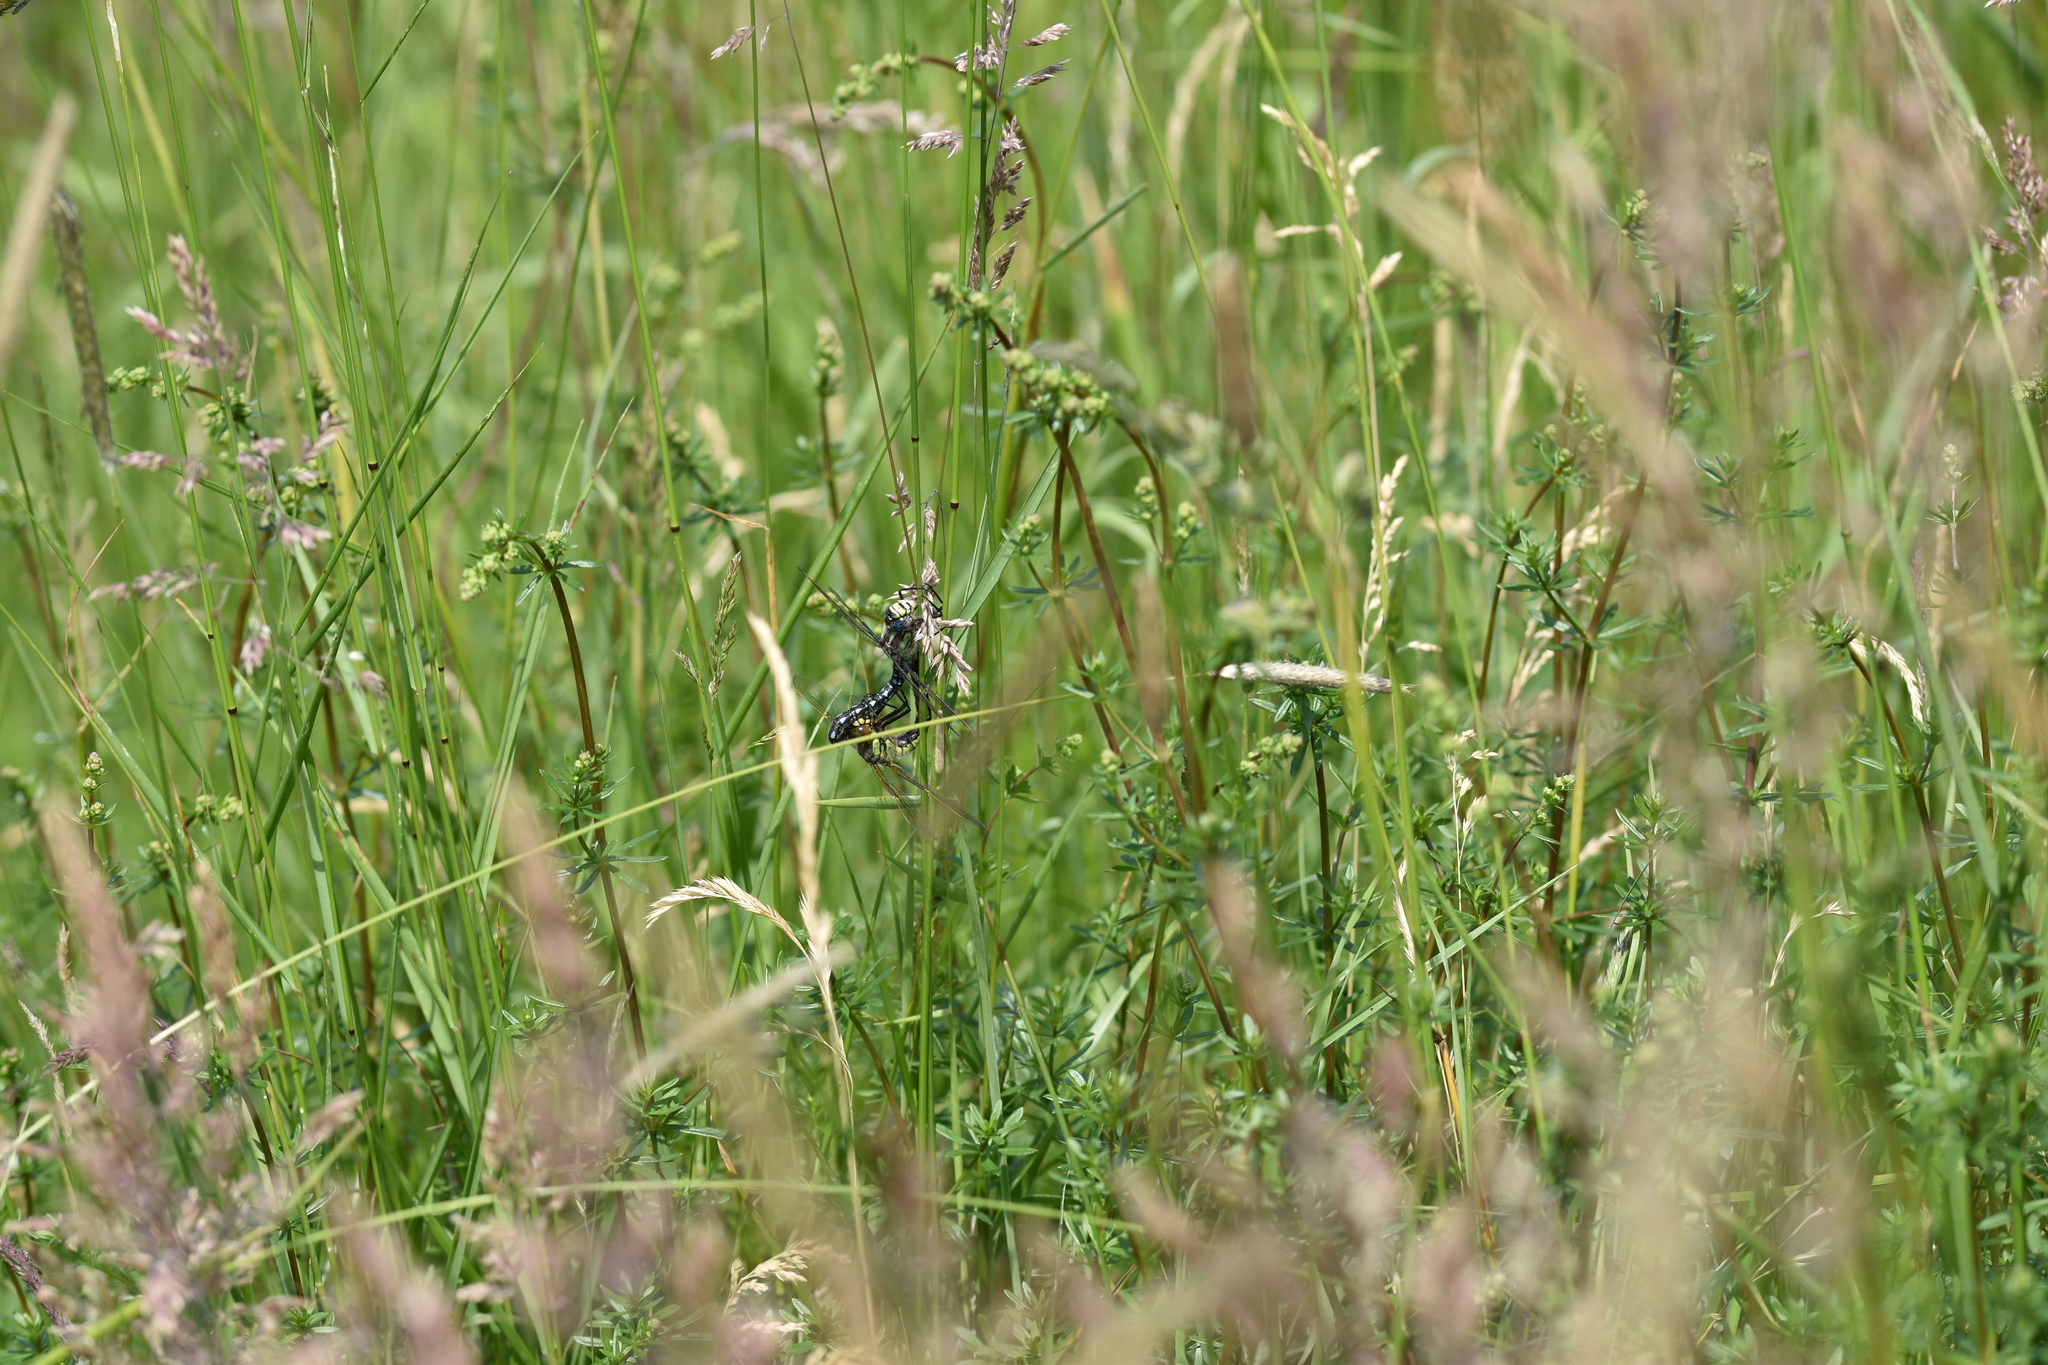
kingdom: Animalia
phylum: Arthropoda
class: Insecta
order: Odonata
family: Aeshnidae
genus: Brachytron
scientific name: Brachytron pratense
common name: Hairy hawker
